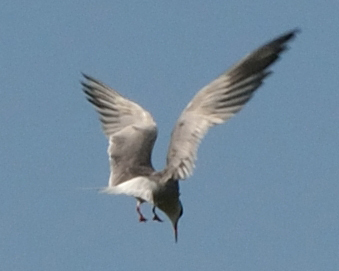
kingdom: Animalia
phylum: Chordata
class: Aves
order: Charadriiformes
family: Laridae
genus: Sterna
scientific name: Sterna hirundo
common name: Common tern
